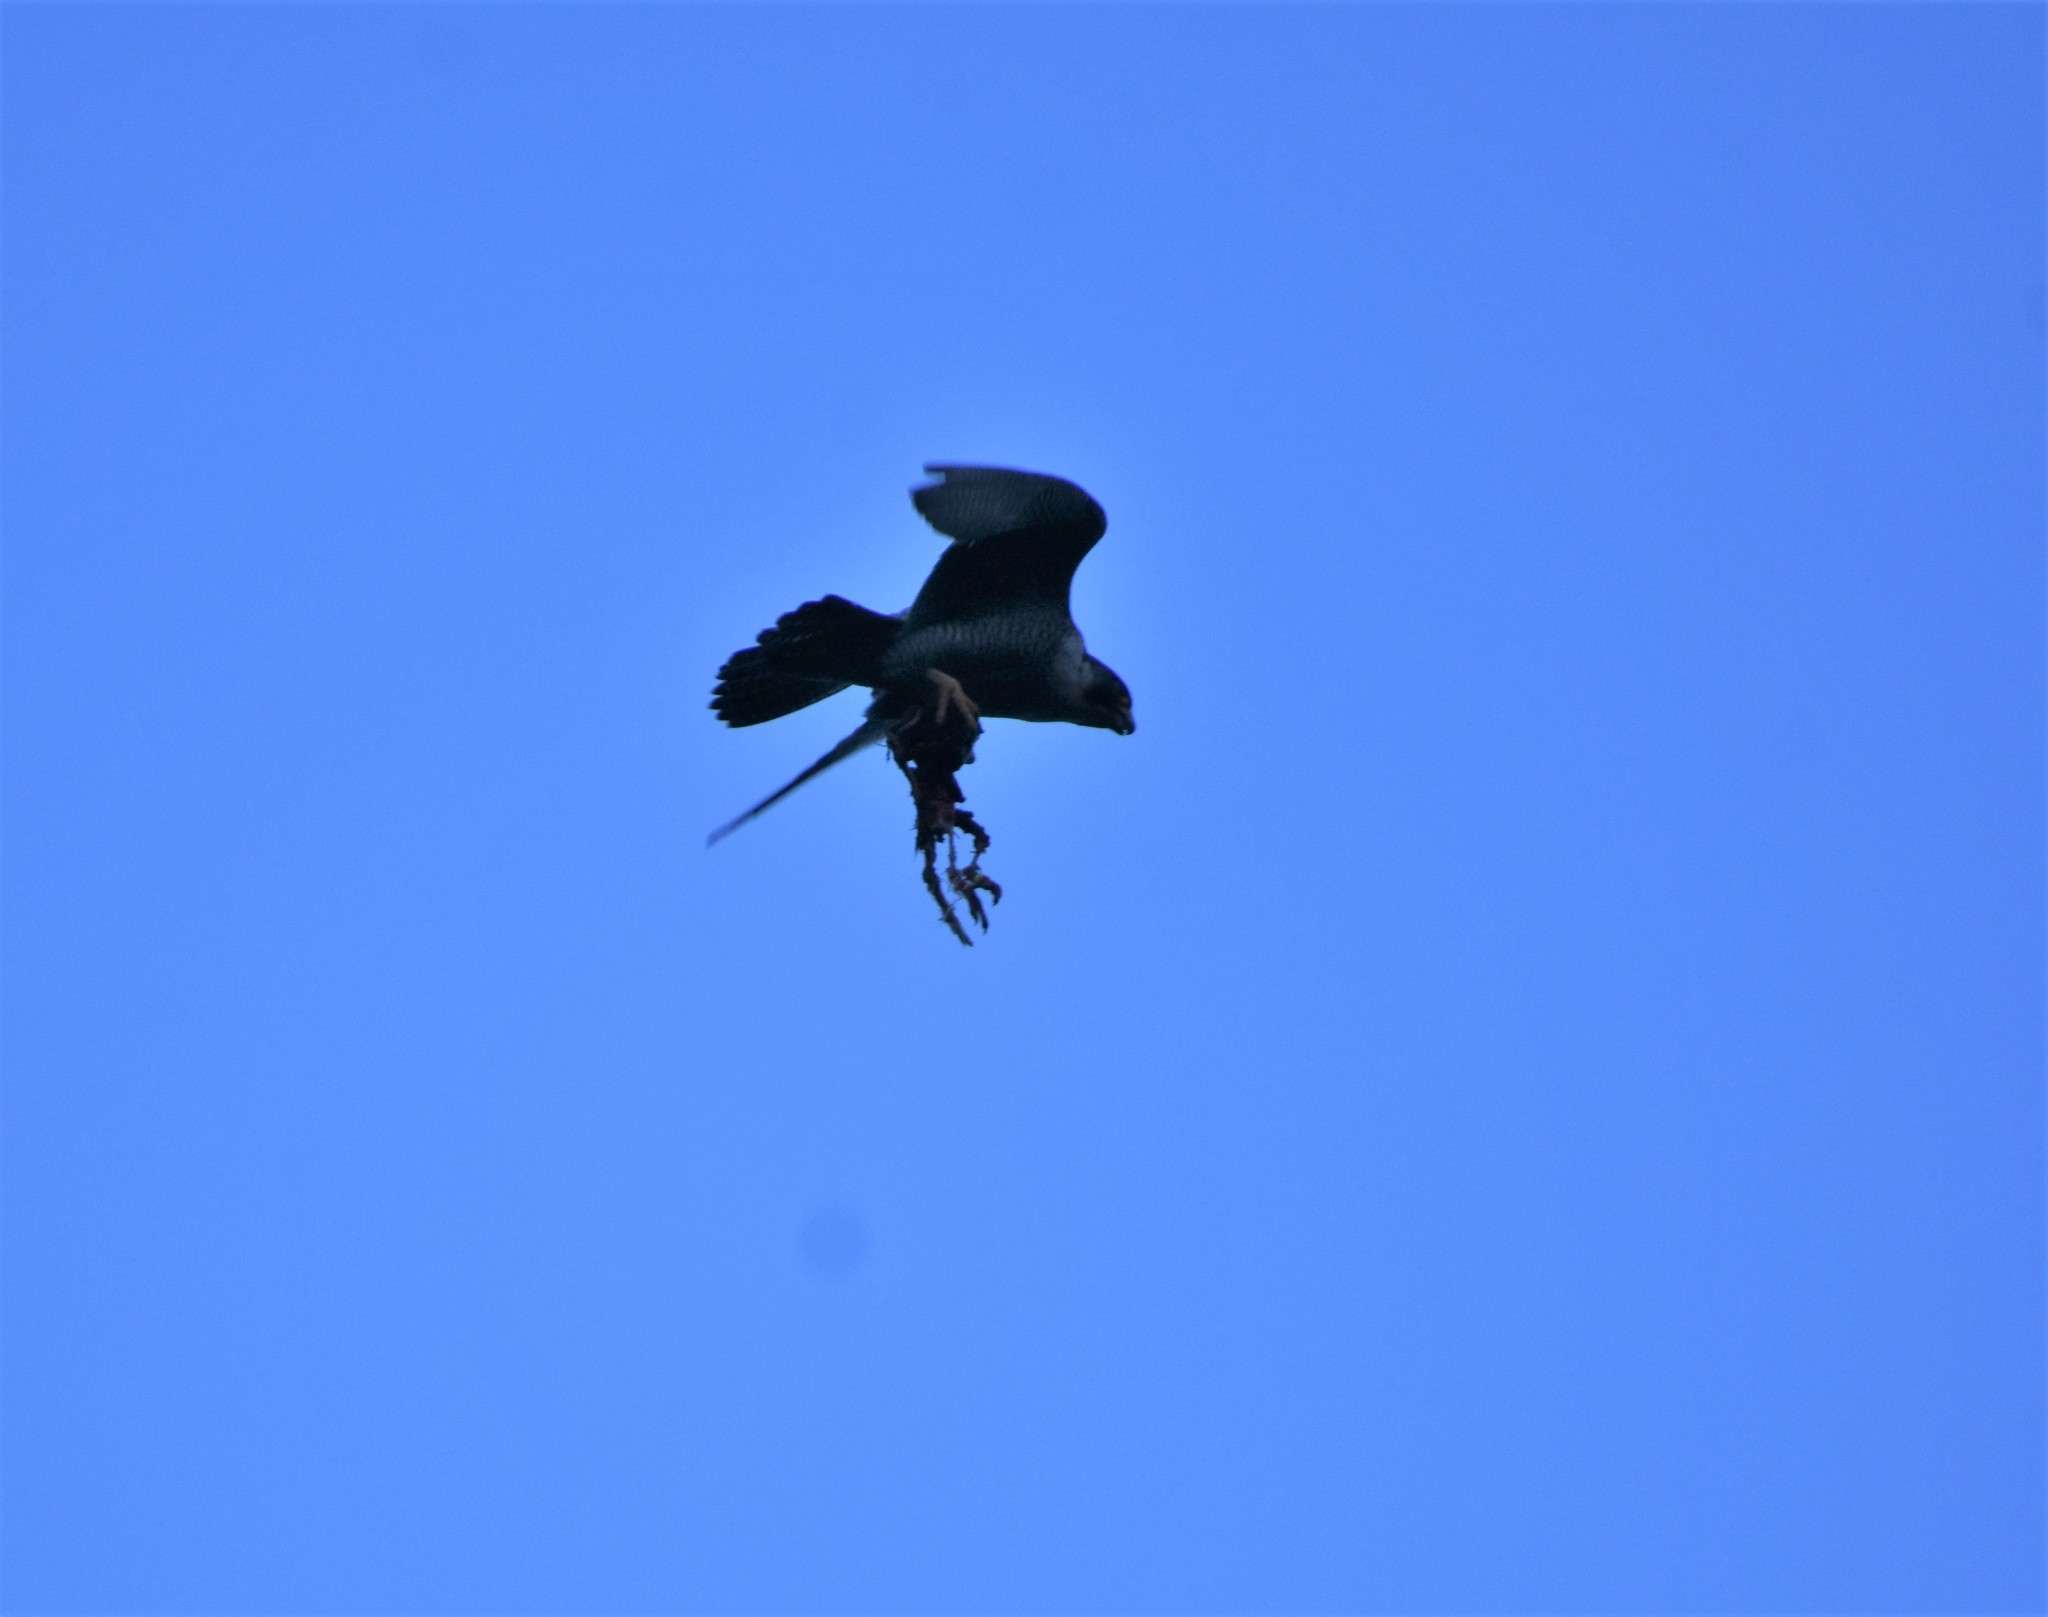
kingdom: Animalia
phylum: Chordata
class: Aves
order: Falconiformes
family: Falconidae
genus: Falco
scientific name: Falco peregrinus
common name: Peregrine falcon
